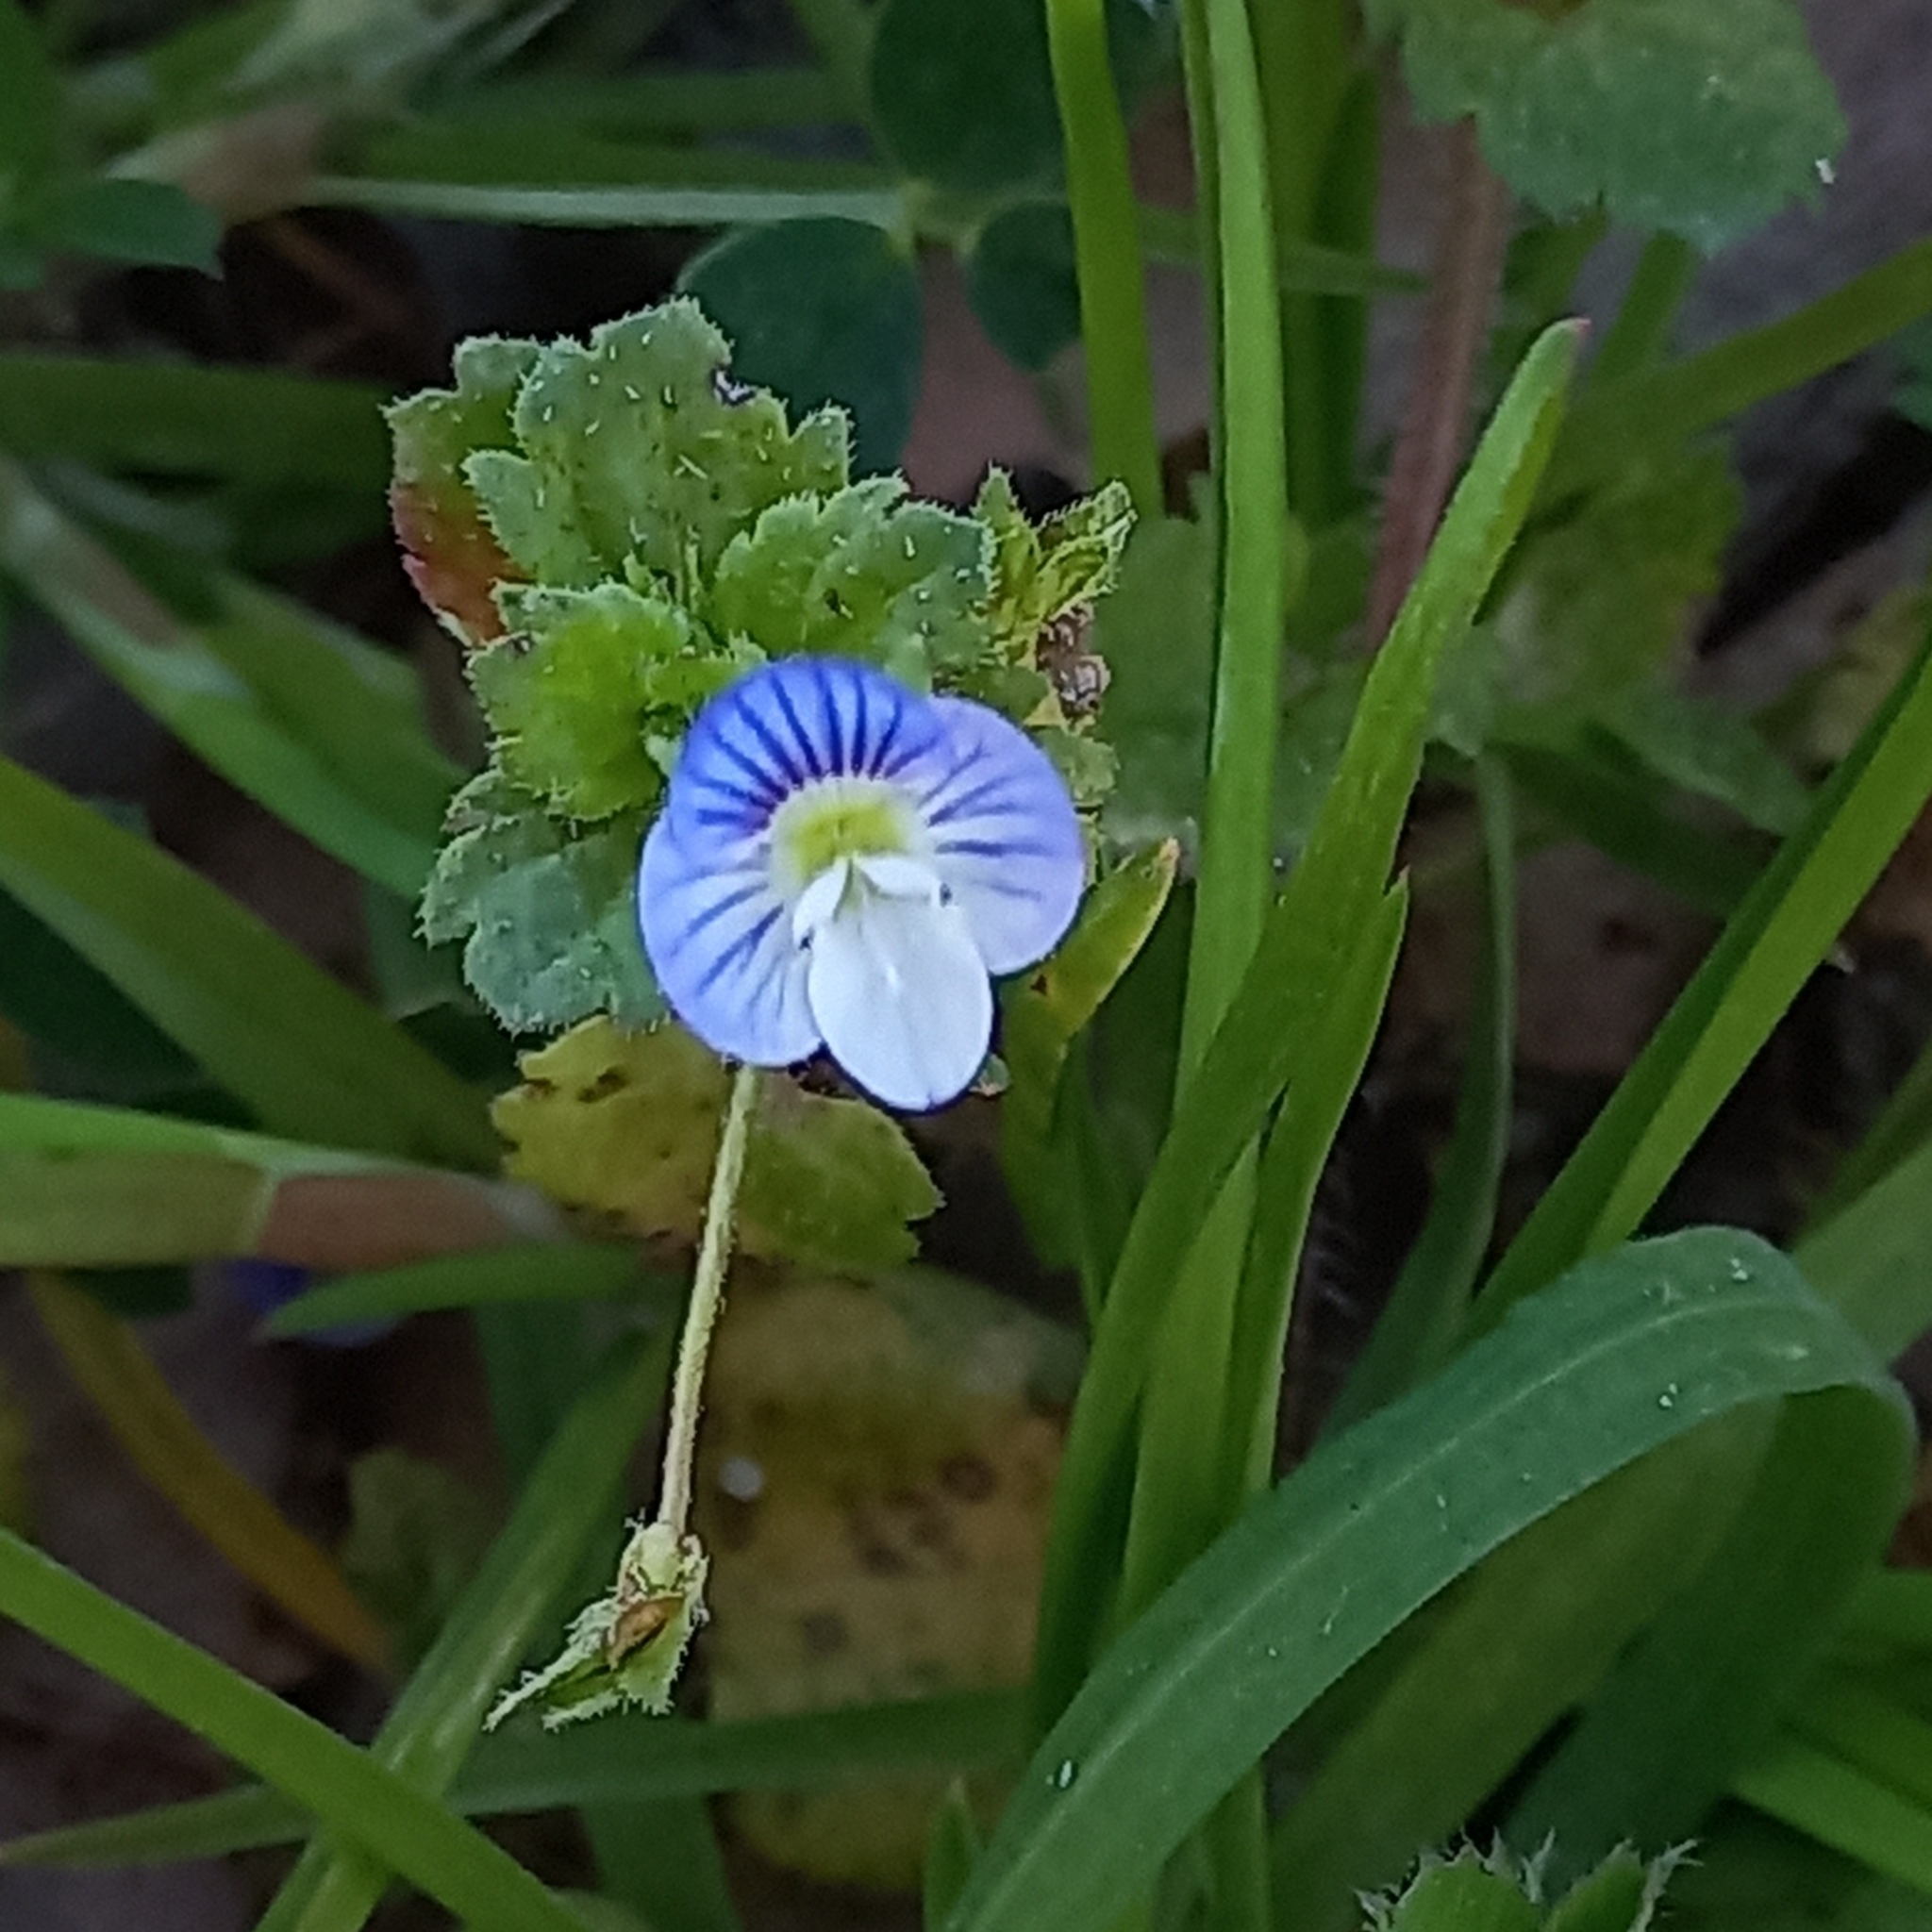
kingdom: Plantae
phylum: Tracheophyta
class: Magnoliopsida
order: Lamiales
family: Plantaginaceae
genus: Veronica
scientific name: Veronica persica
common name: Common field-speedwell
